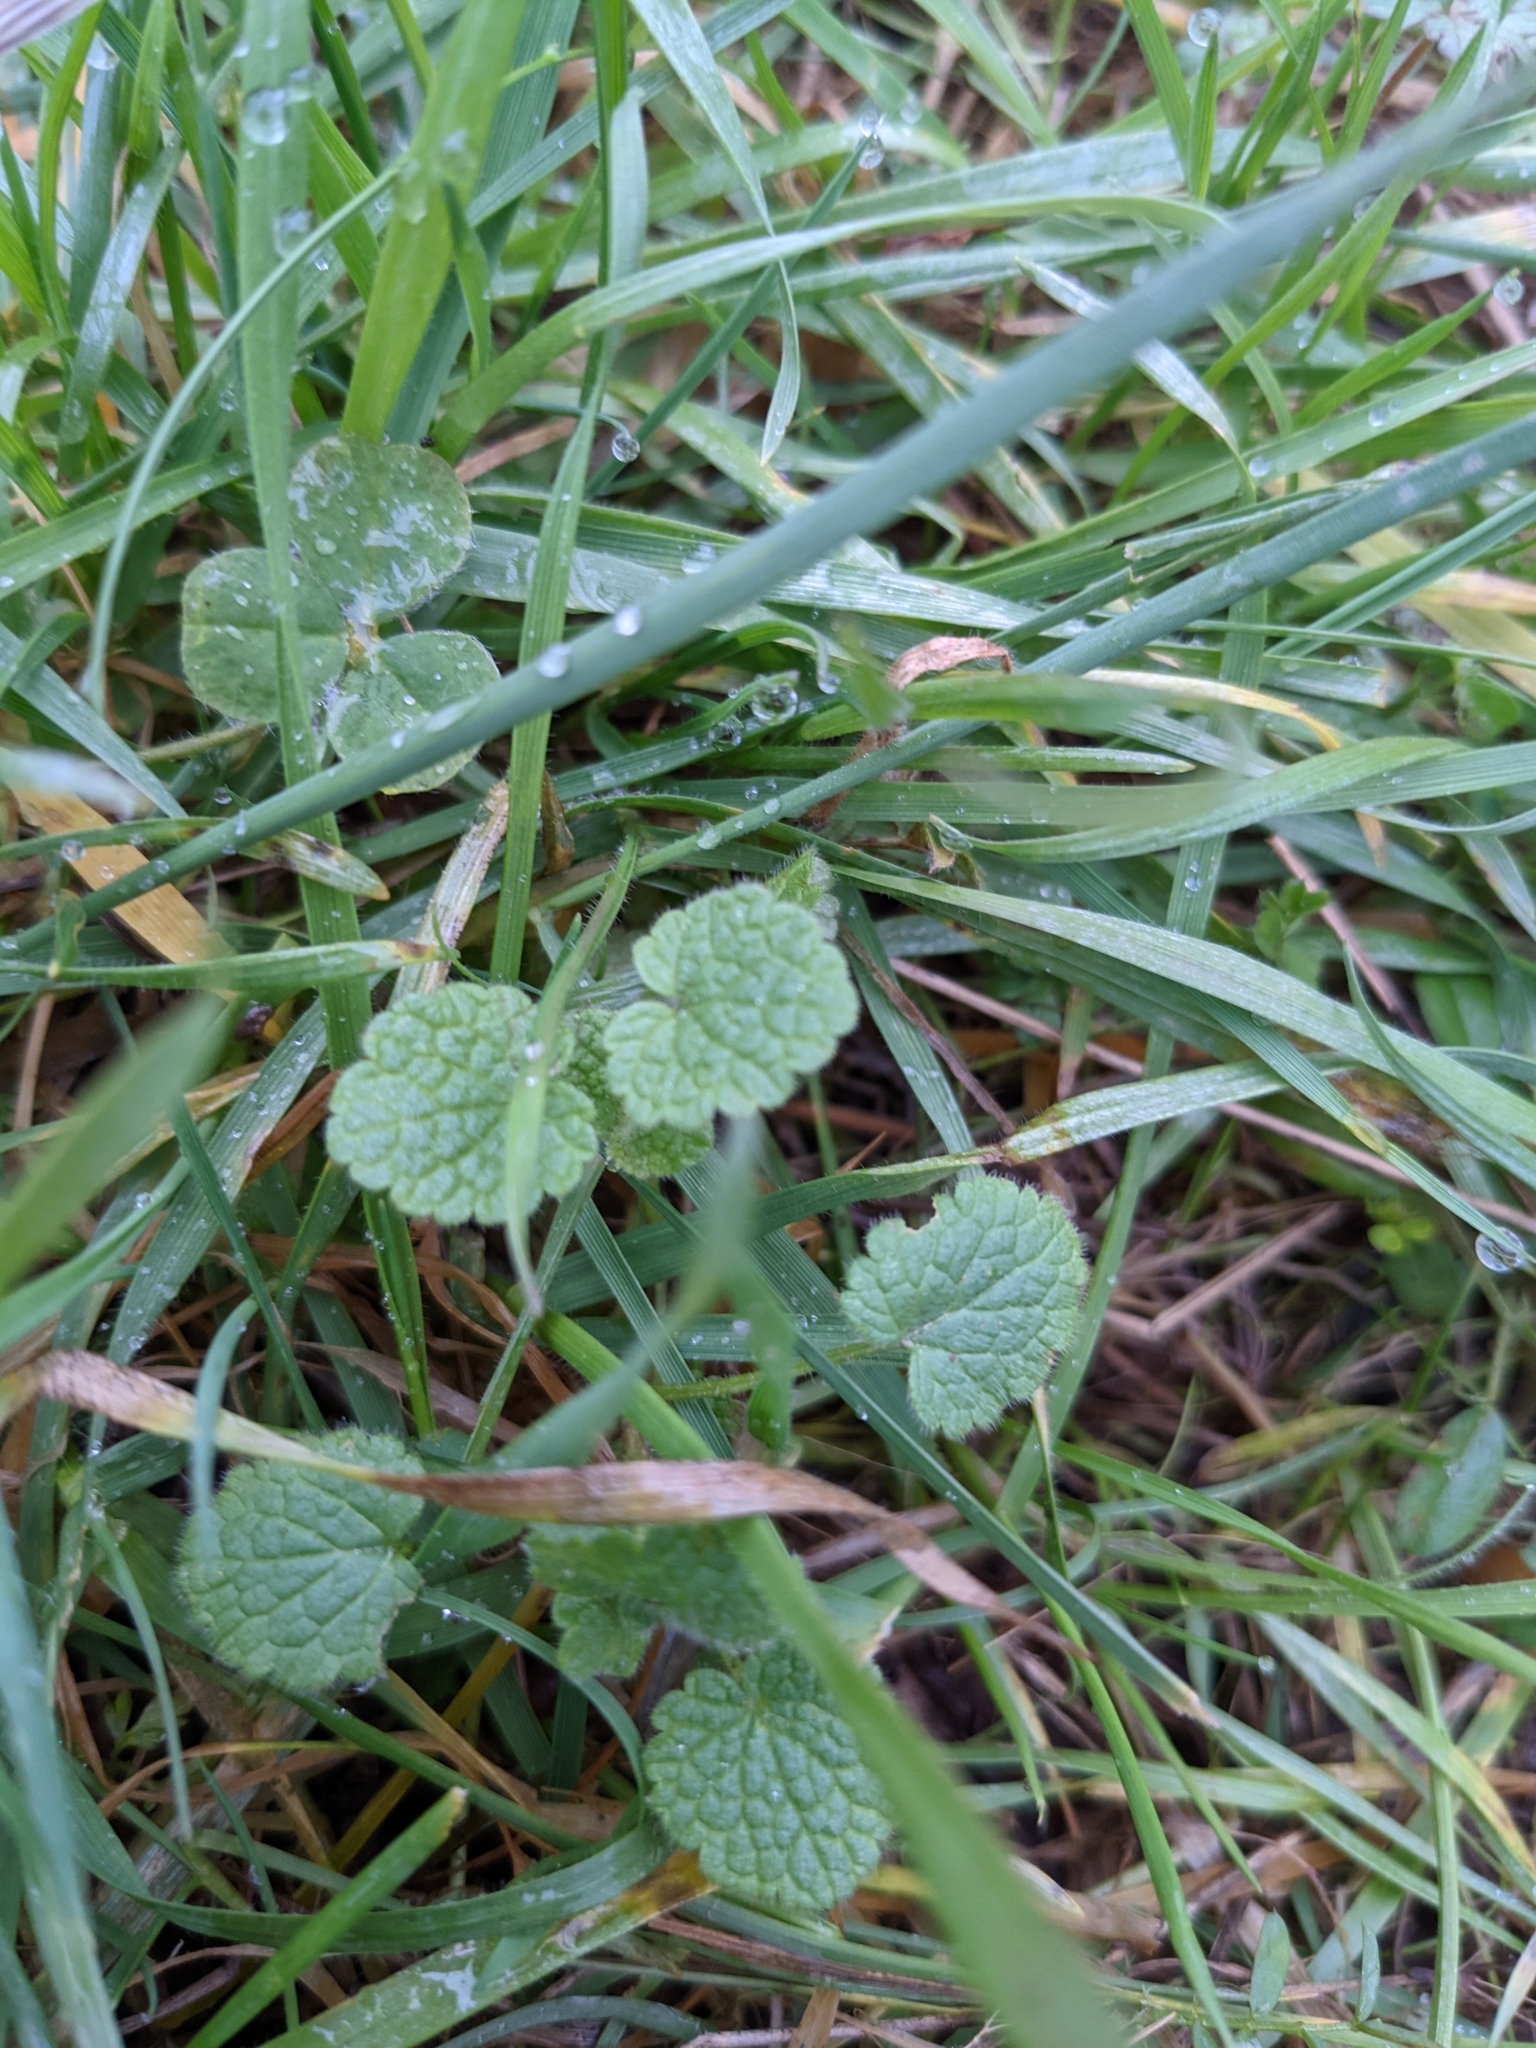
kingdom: Plantae
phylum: Tracheophyta
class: Magnoliopsida
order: Lamiales
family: Lamiaceae
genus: Lamium
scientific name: Lamium purpureum
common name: Red dead-nettle
